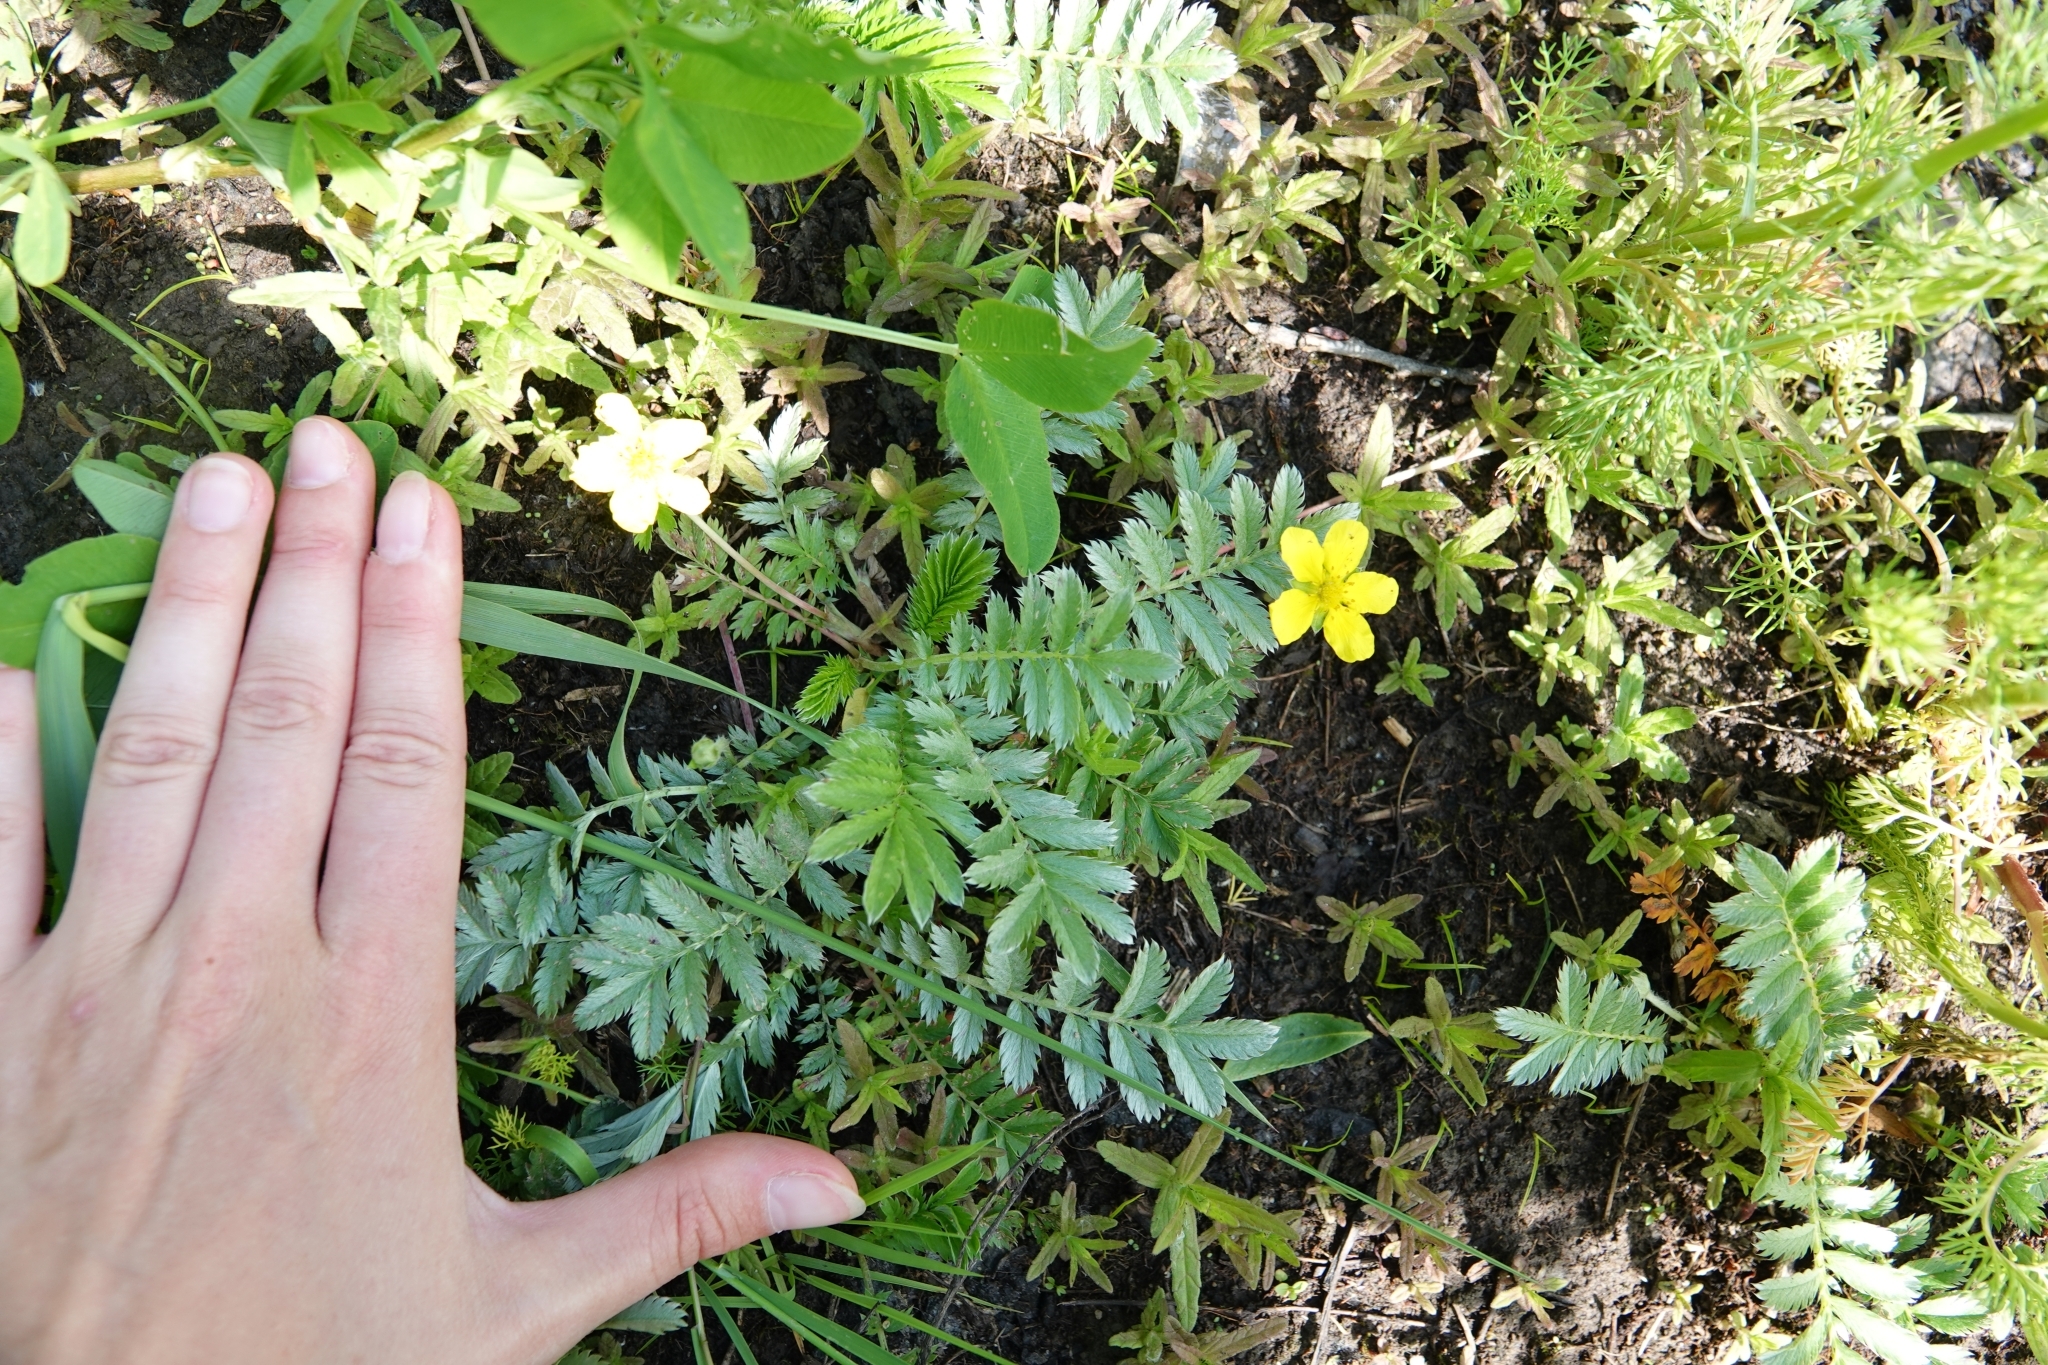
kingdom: Plantae
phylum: Tracheophyta
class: Magnoliopsida
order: Rosales
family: Rosaceae
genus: Argentina
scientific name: Argentina anserina
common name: Common silverweed
